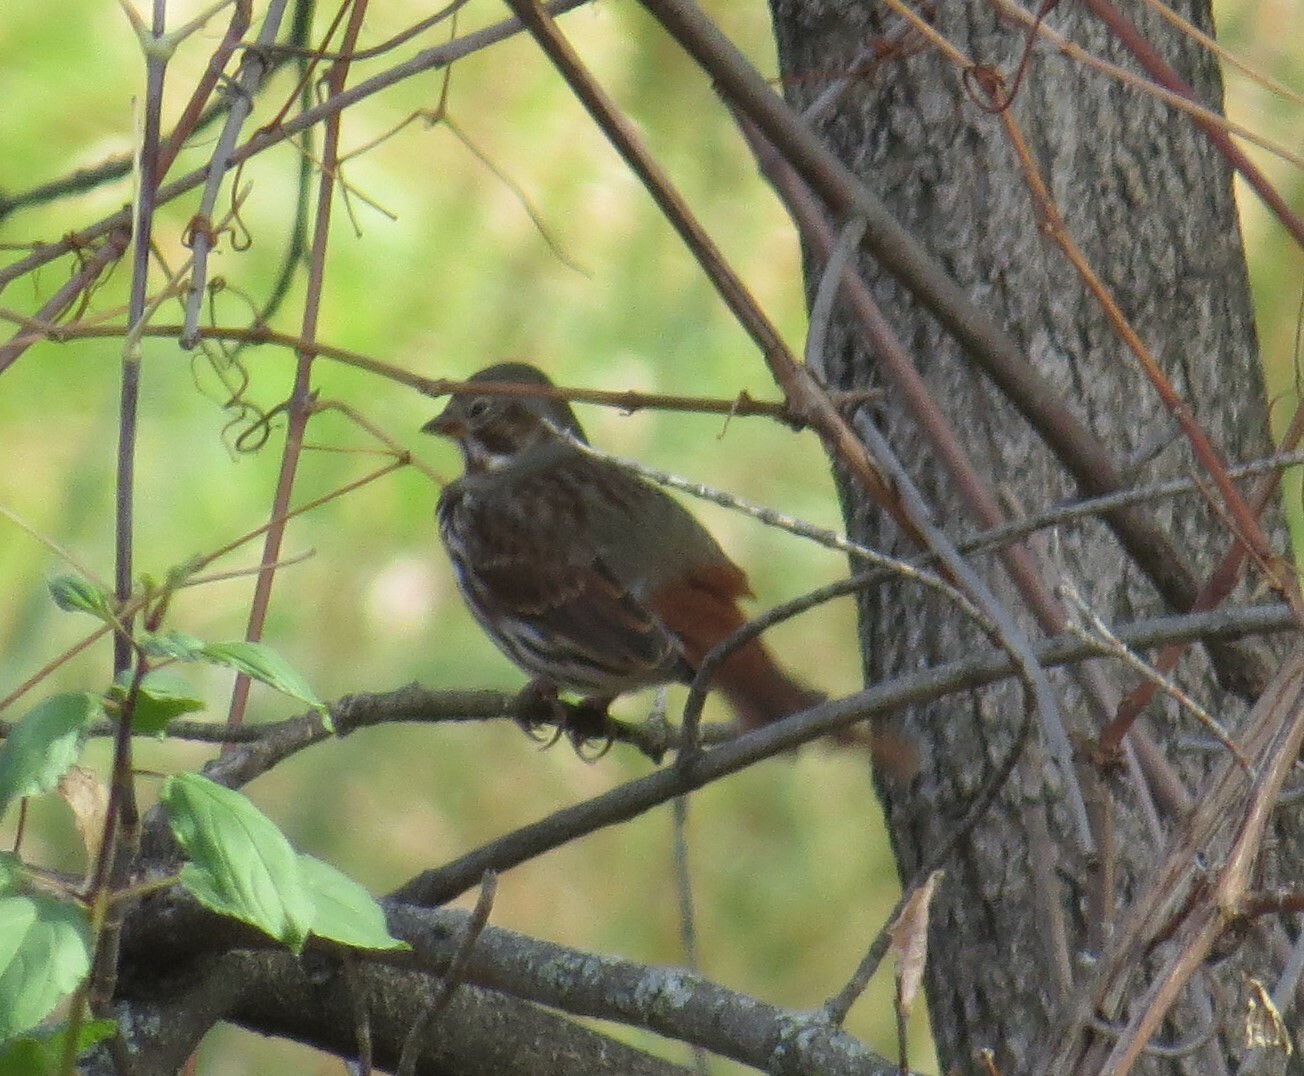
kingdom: Animalia
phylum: Chordata
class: Aves
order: Passeriformes
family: Passerellidae
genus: Passerella
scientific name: Passerella iliaca
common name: Fox sparrow
